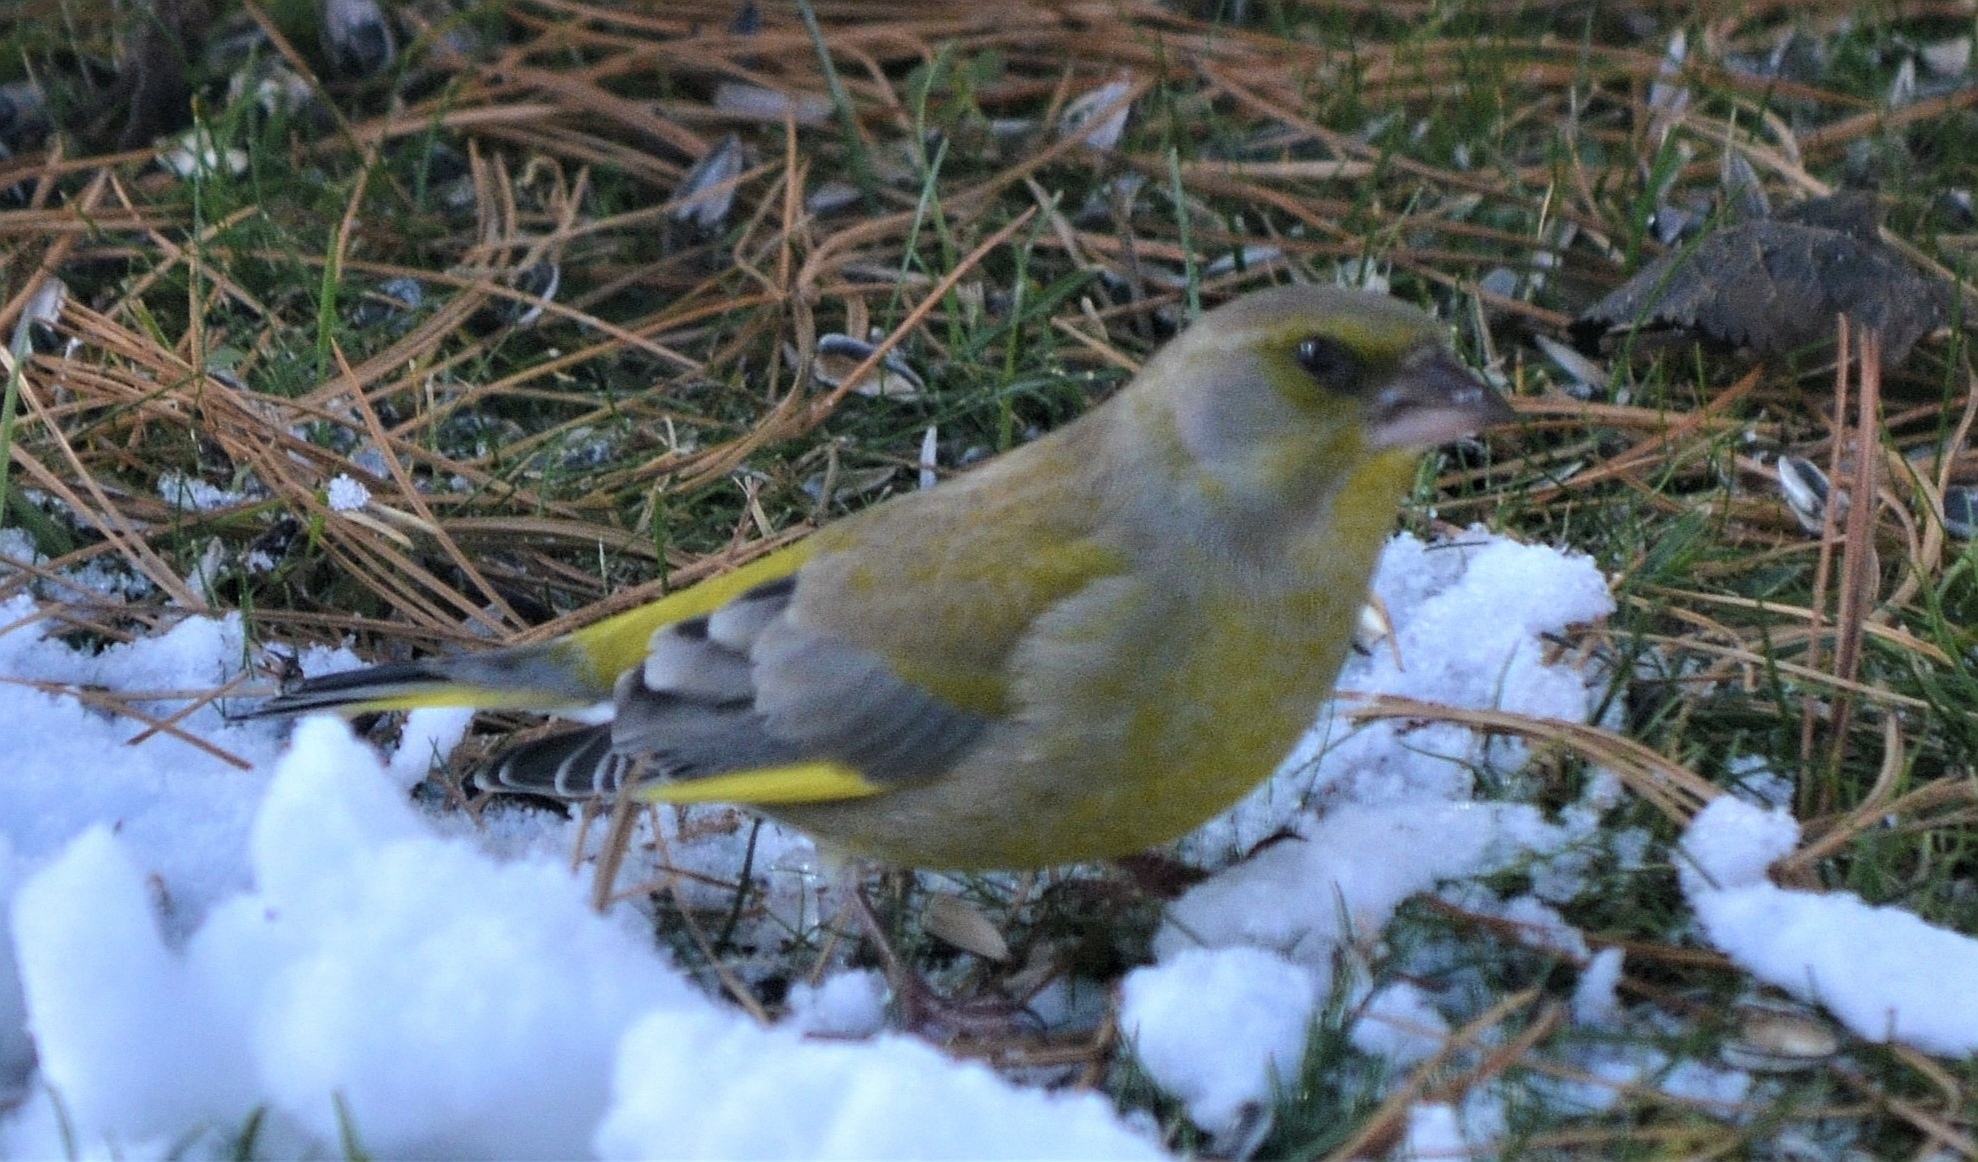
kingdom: Plantae
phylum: Tracheophyta
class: Liliopsida
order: Poales
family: Poaceae
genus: Chloris
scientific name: Chloris chloris
